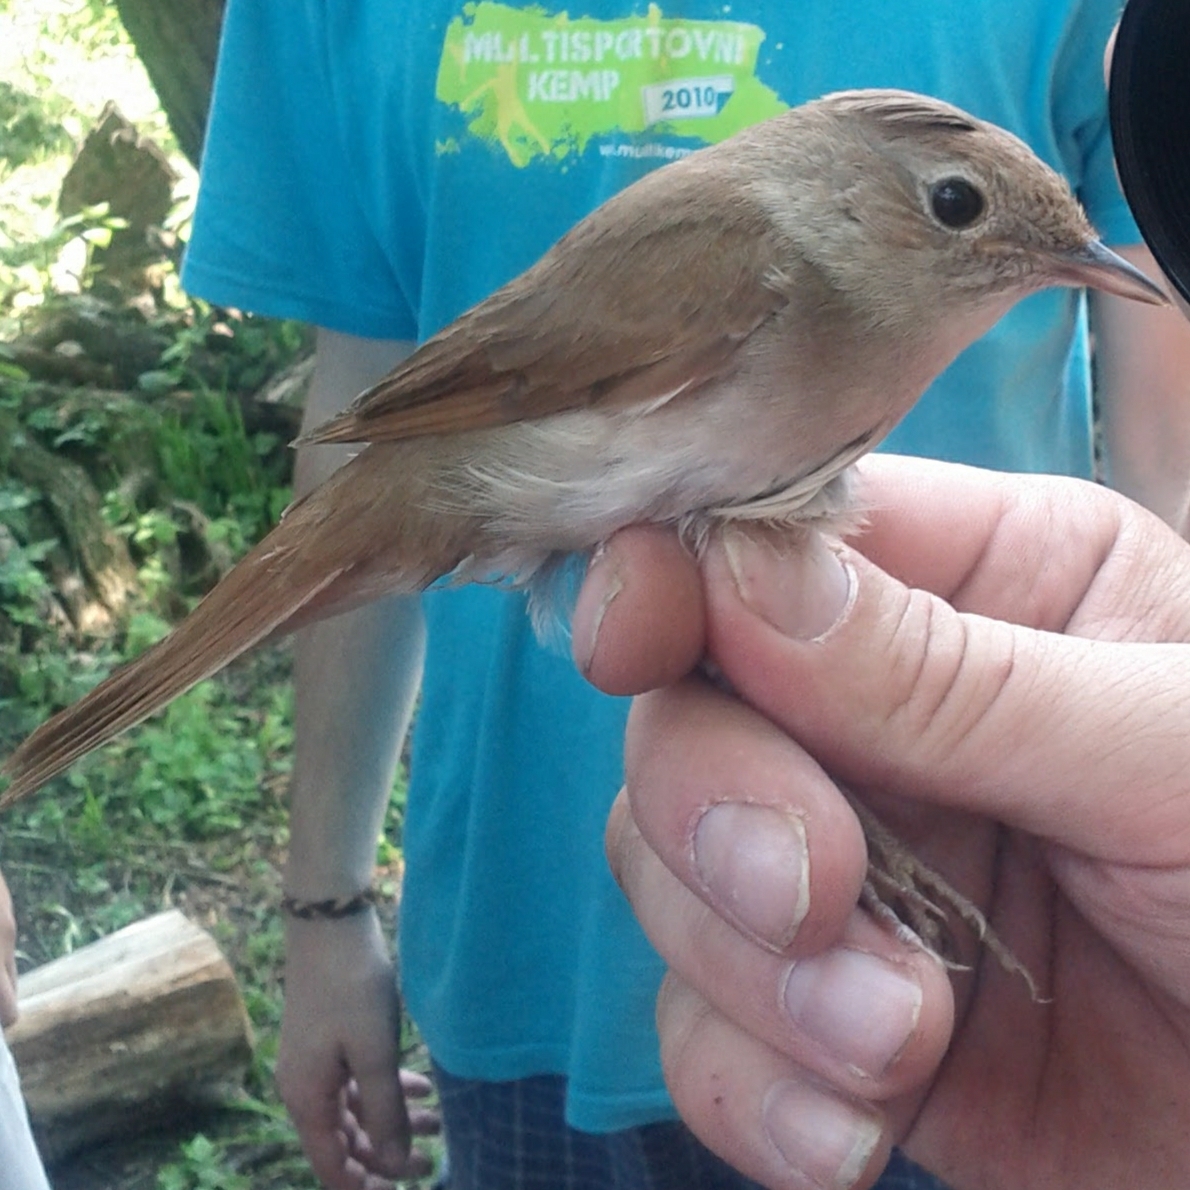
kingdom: Animalia
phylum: Chordata
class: Aves
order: Passeriformes
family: Muscicapidae
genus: Luscinia
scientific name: Luscinia megarhynchos
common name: Common nightingale
